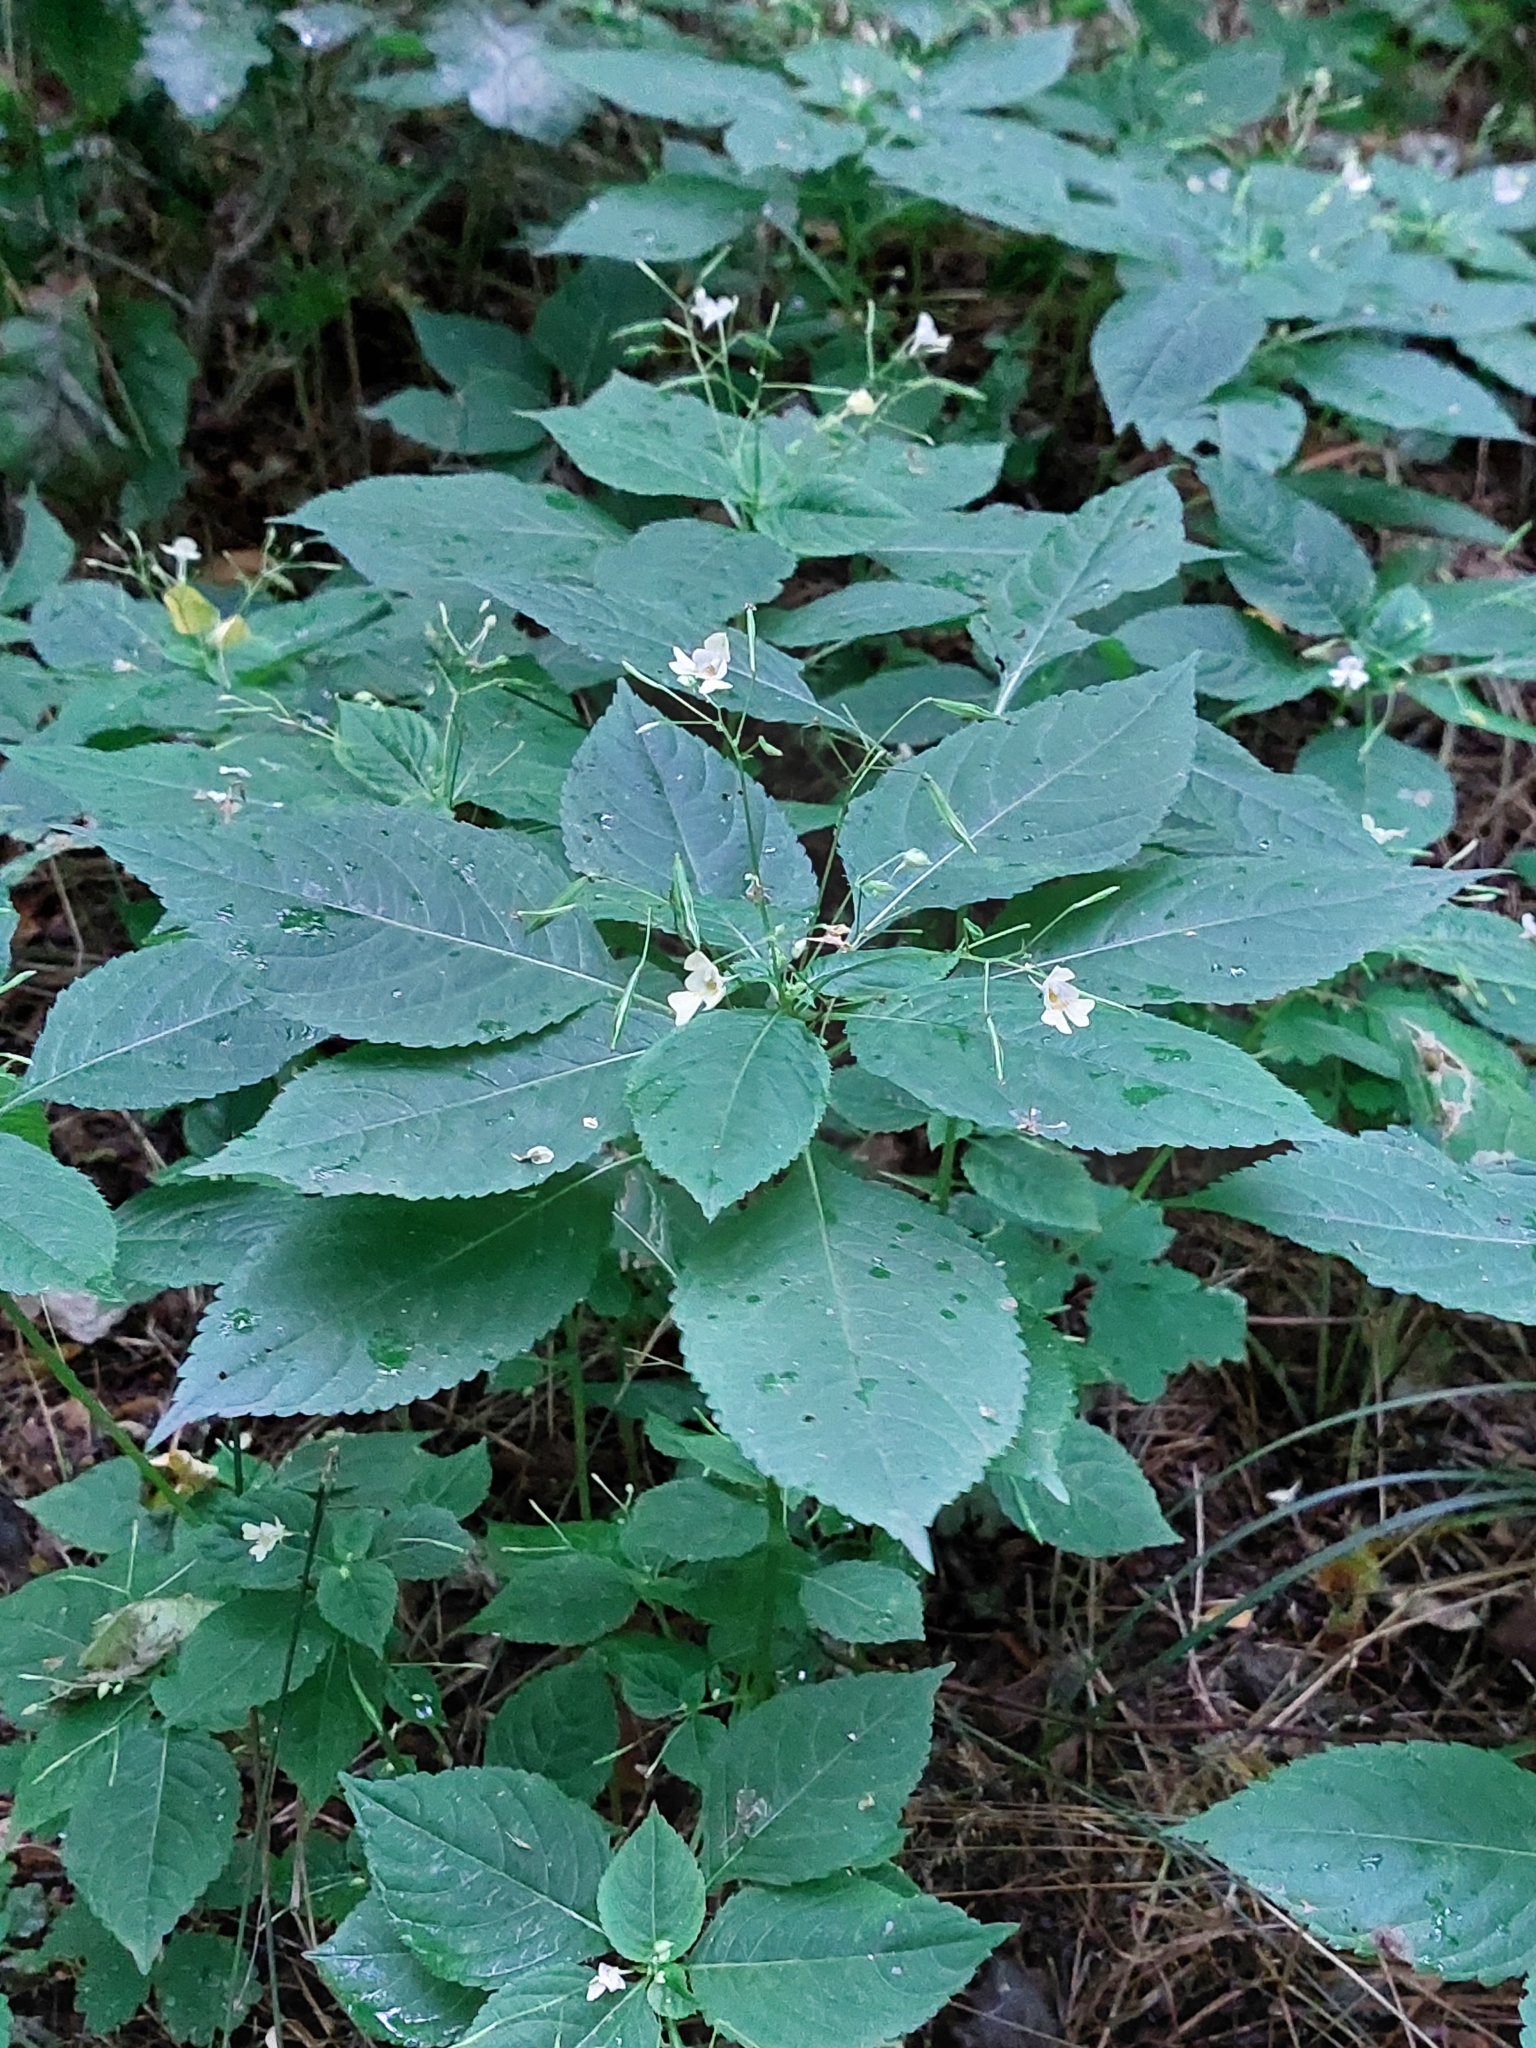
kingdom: Plantae
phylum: Tracheophyta
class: Magnoliopsida
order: Ericales
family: Balsaminaceae
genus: Impatiens
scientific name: Impatiens parviflora
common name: Small balsam
